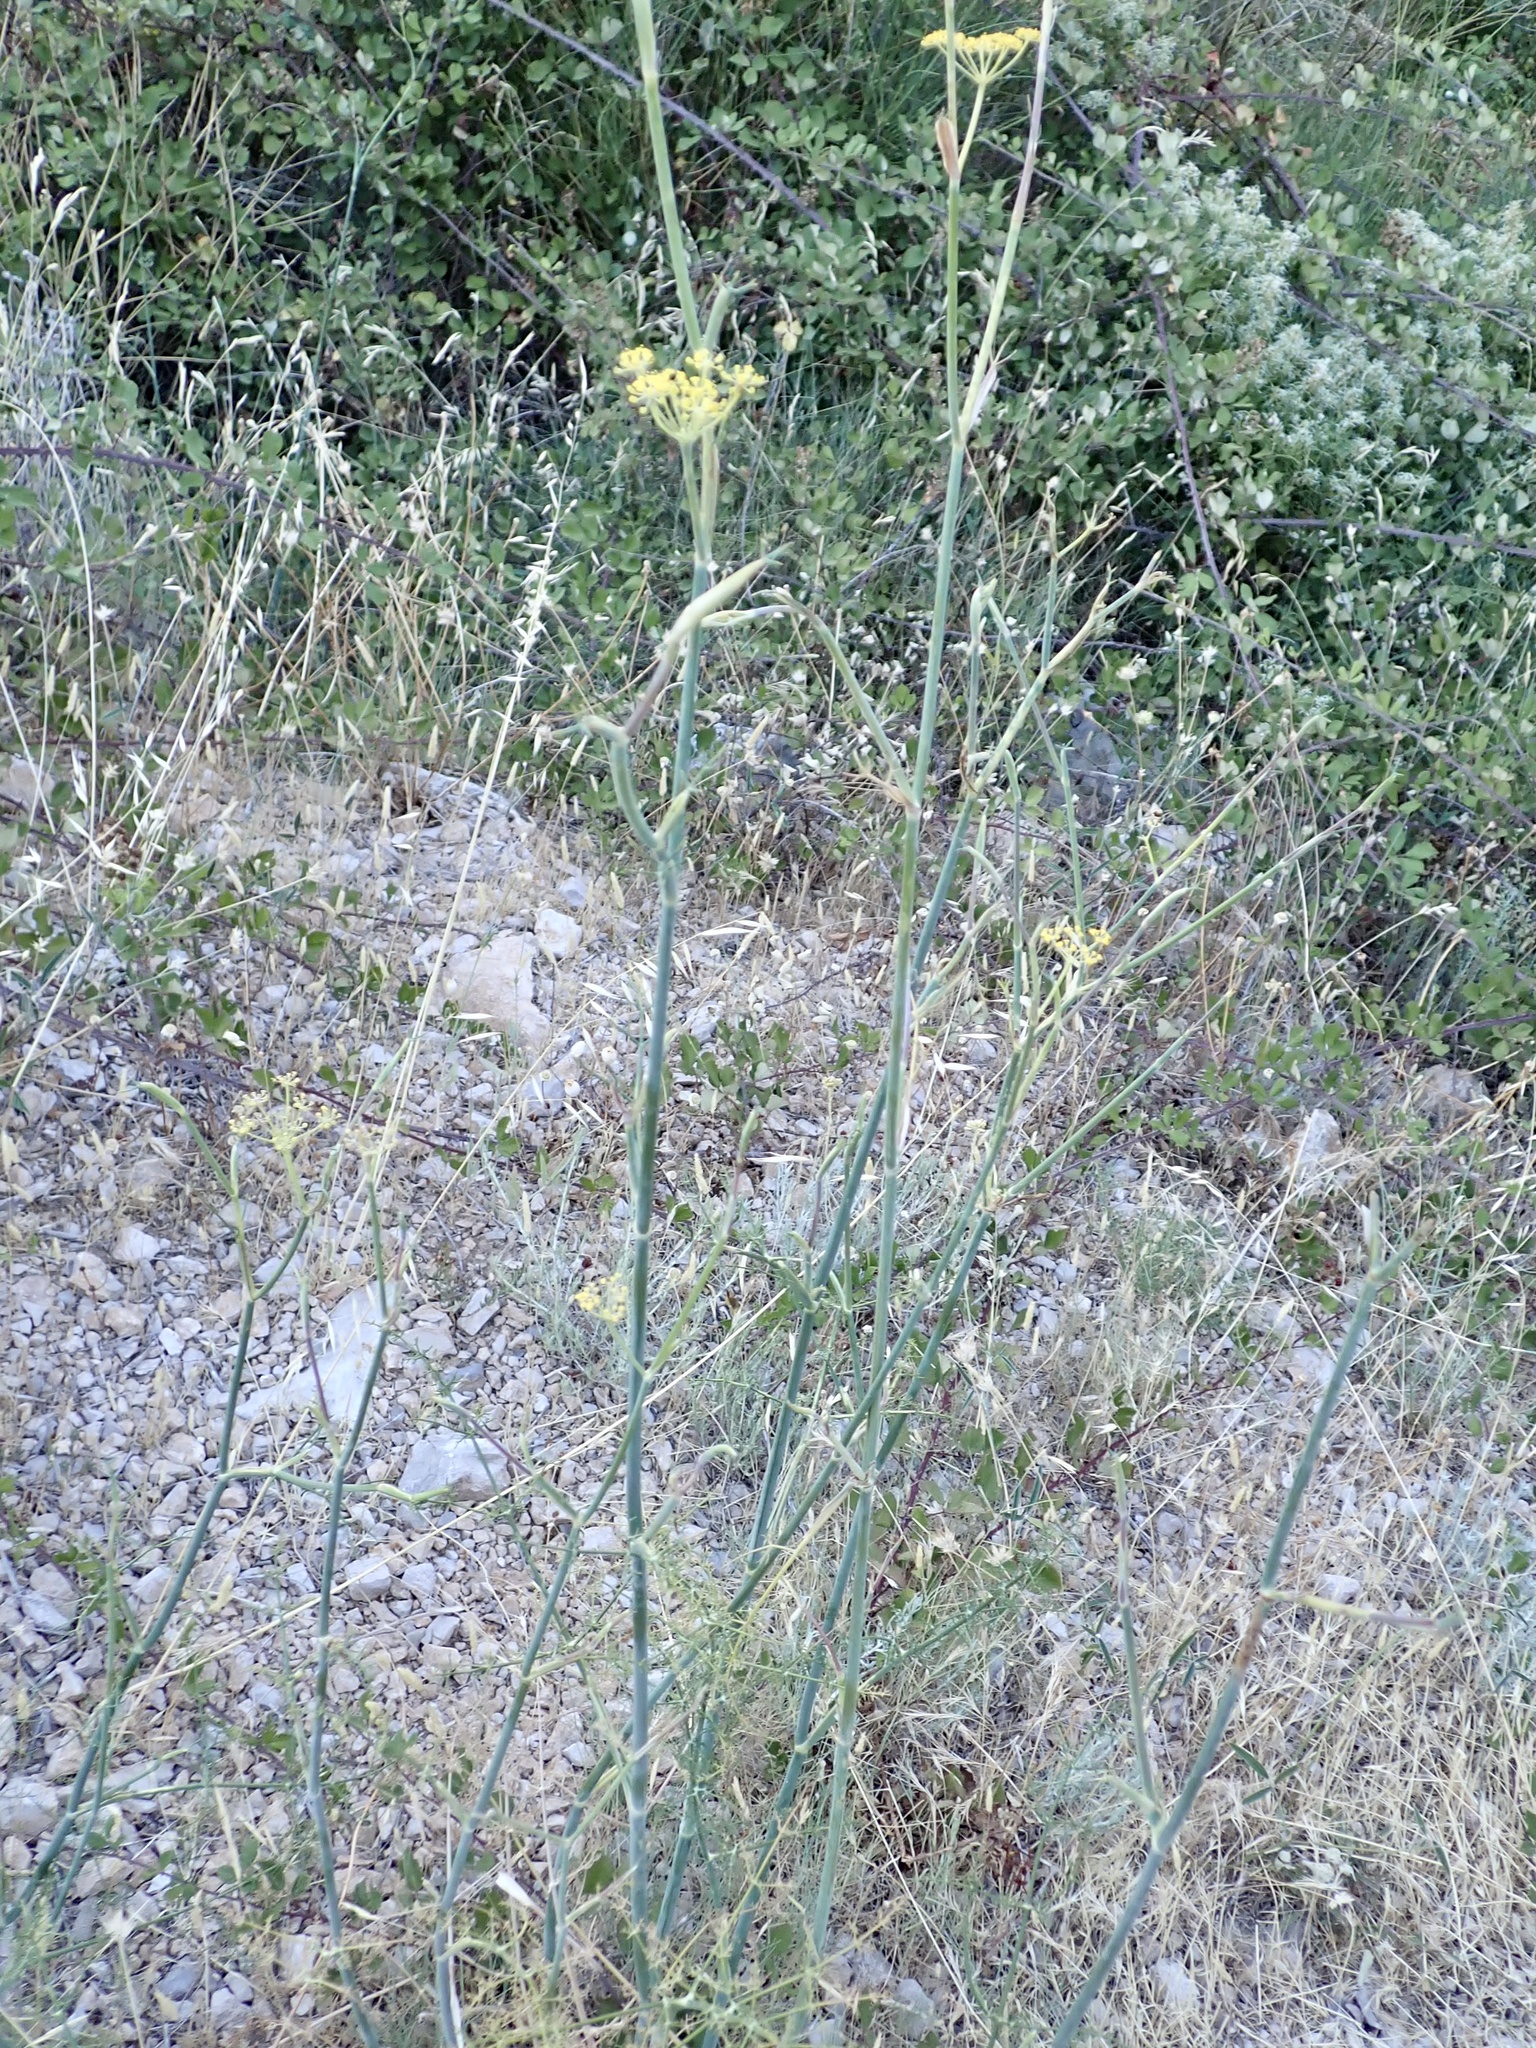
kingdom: Plantae
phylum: Tracheophyta
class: Magnoliopsida
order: Apiales
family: Apiaceae
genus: Foeniculum
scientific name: Foeniculum vulgare
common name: Fennel
